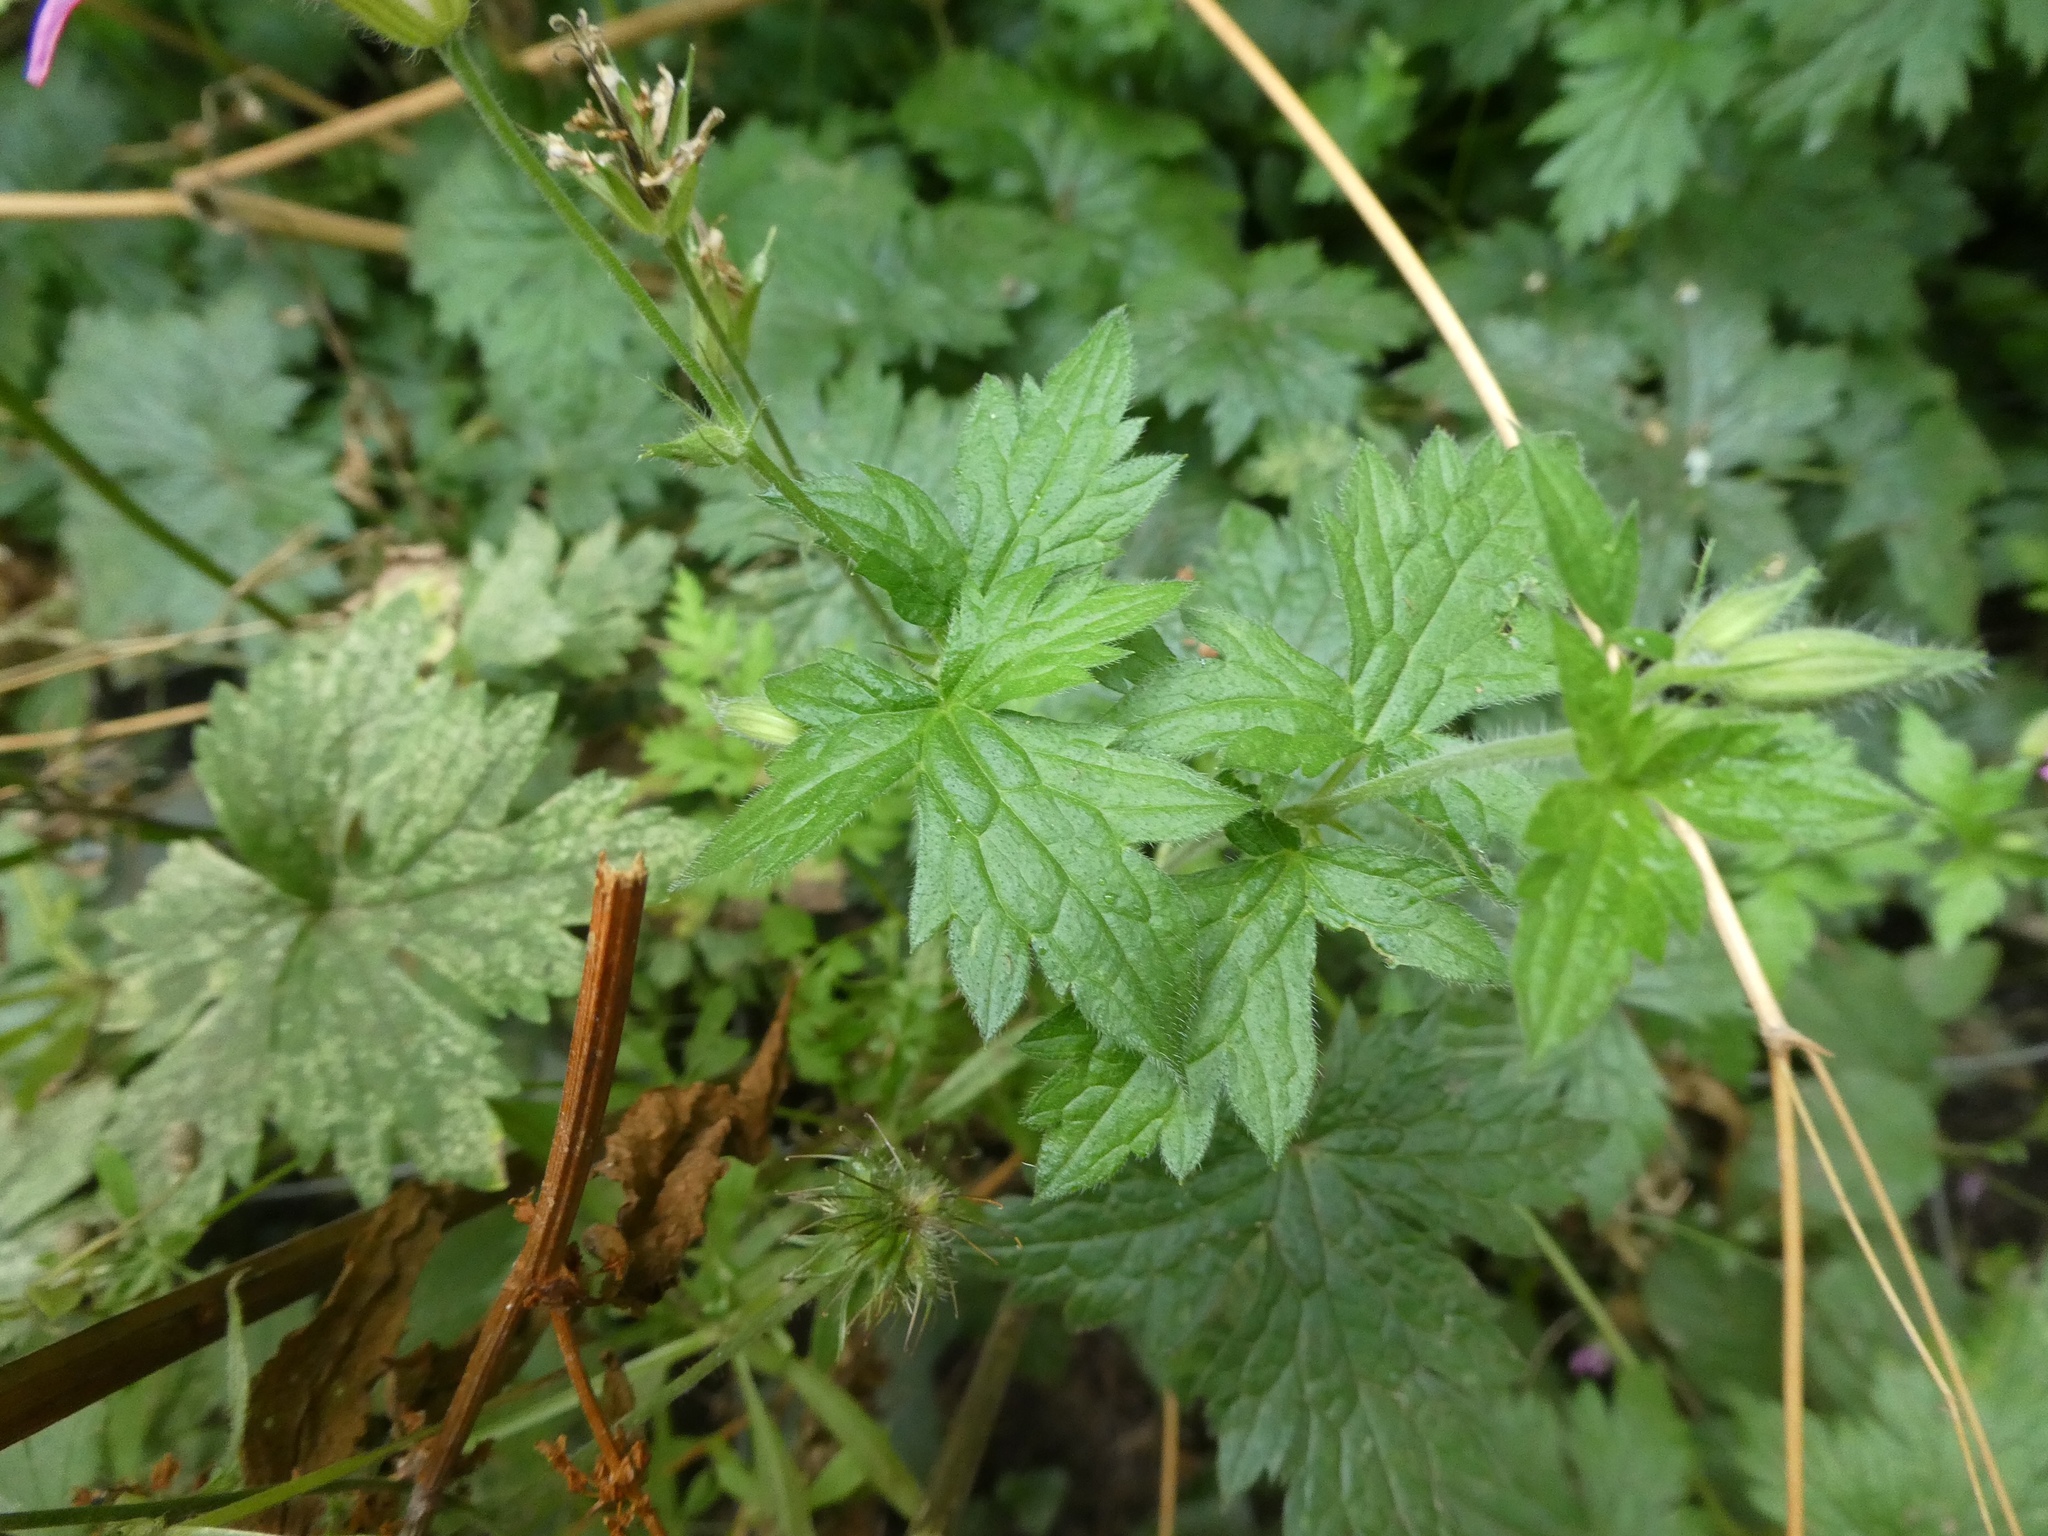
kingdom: Plantae
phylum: Tracheophyta
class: Magnoliopsida
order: Geraniales
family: Geraniaceae
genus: Geranium
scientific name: Geranium oxonianum
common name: Druce's crane's-bill
